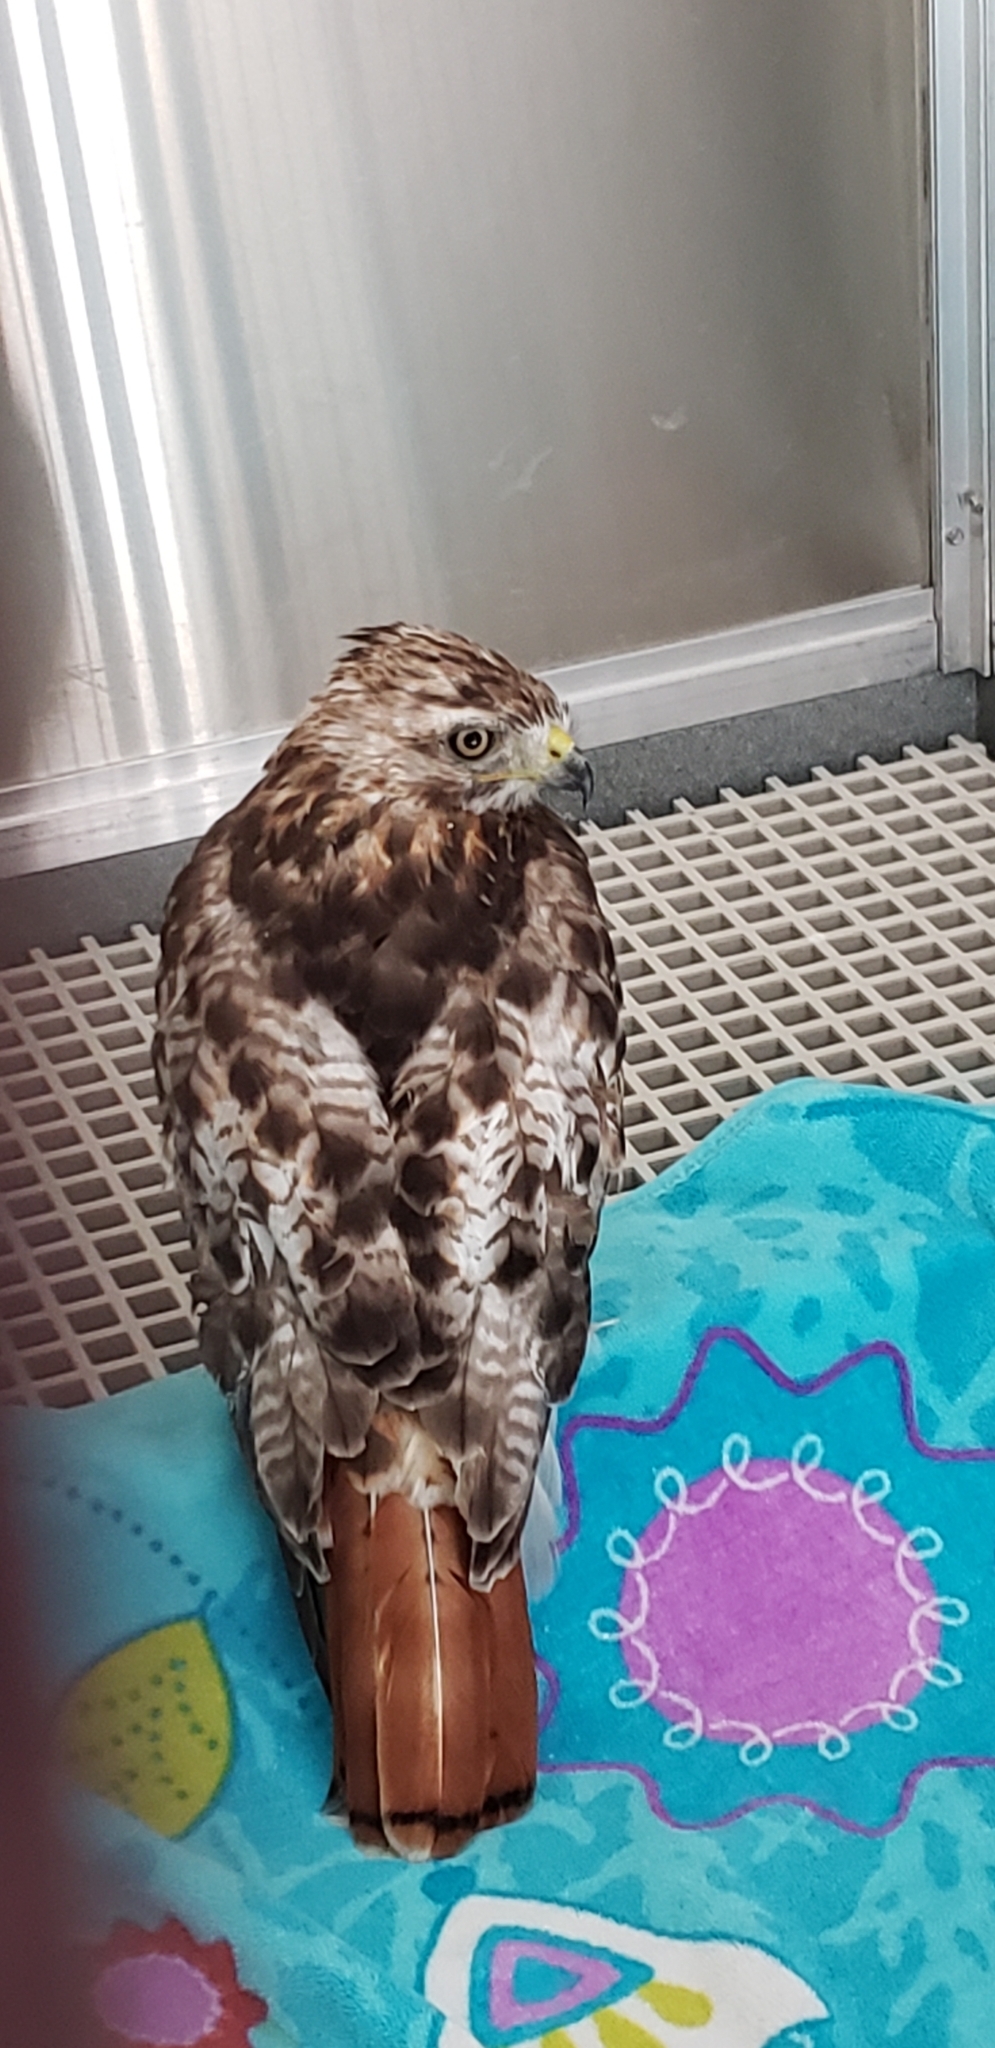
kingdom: Animalia
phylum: Chordata
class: Aves
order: Accipitriformes
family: Accipitridae
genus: Buteo
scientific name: Buteo jamaicensis
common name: Red-tailed hawk
